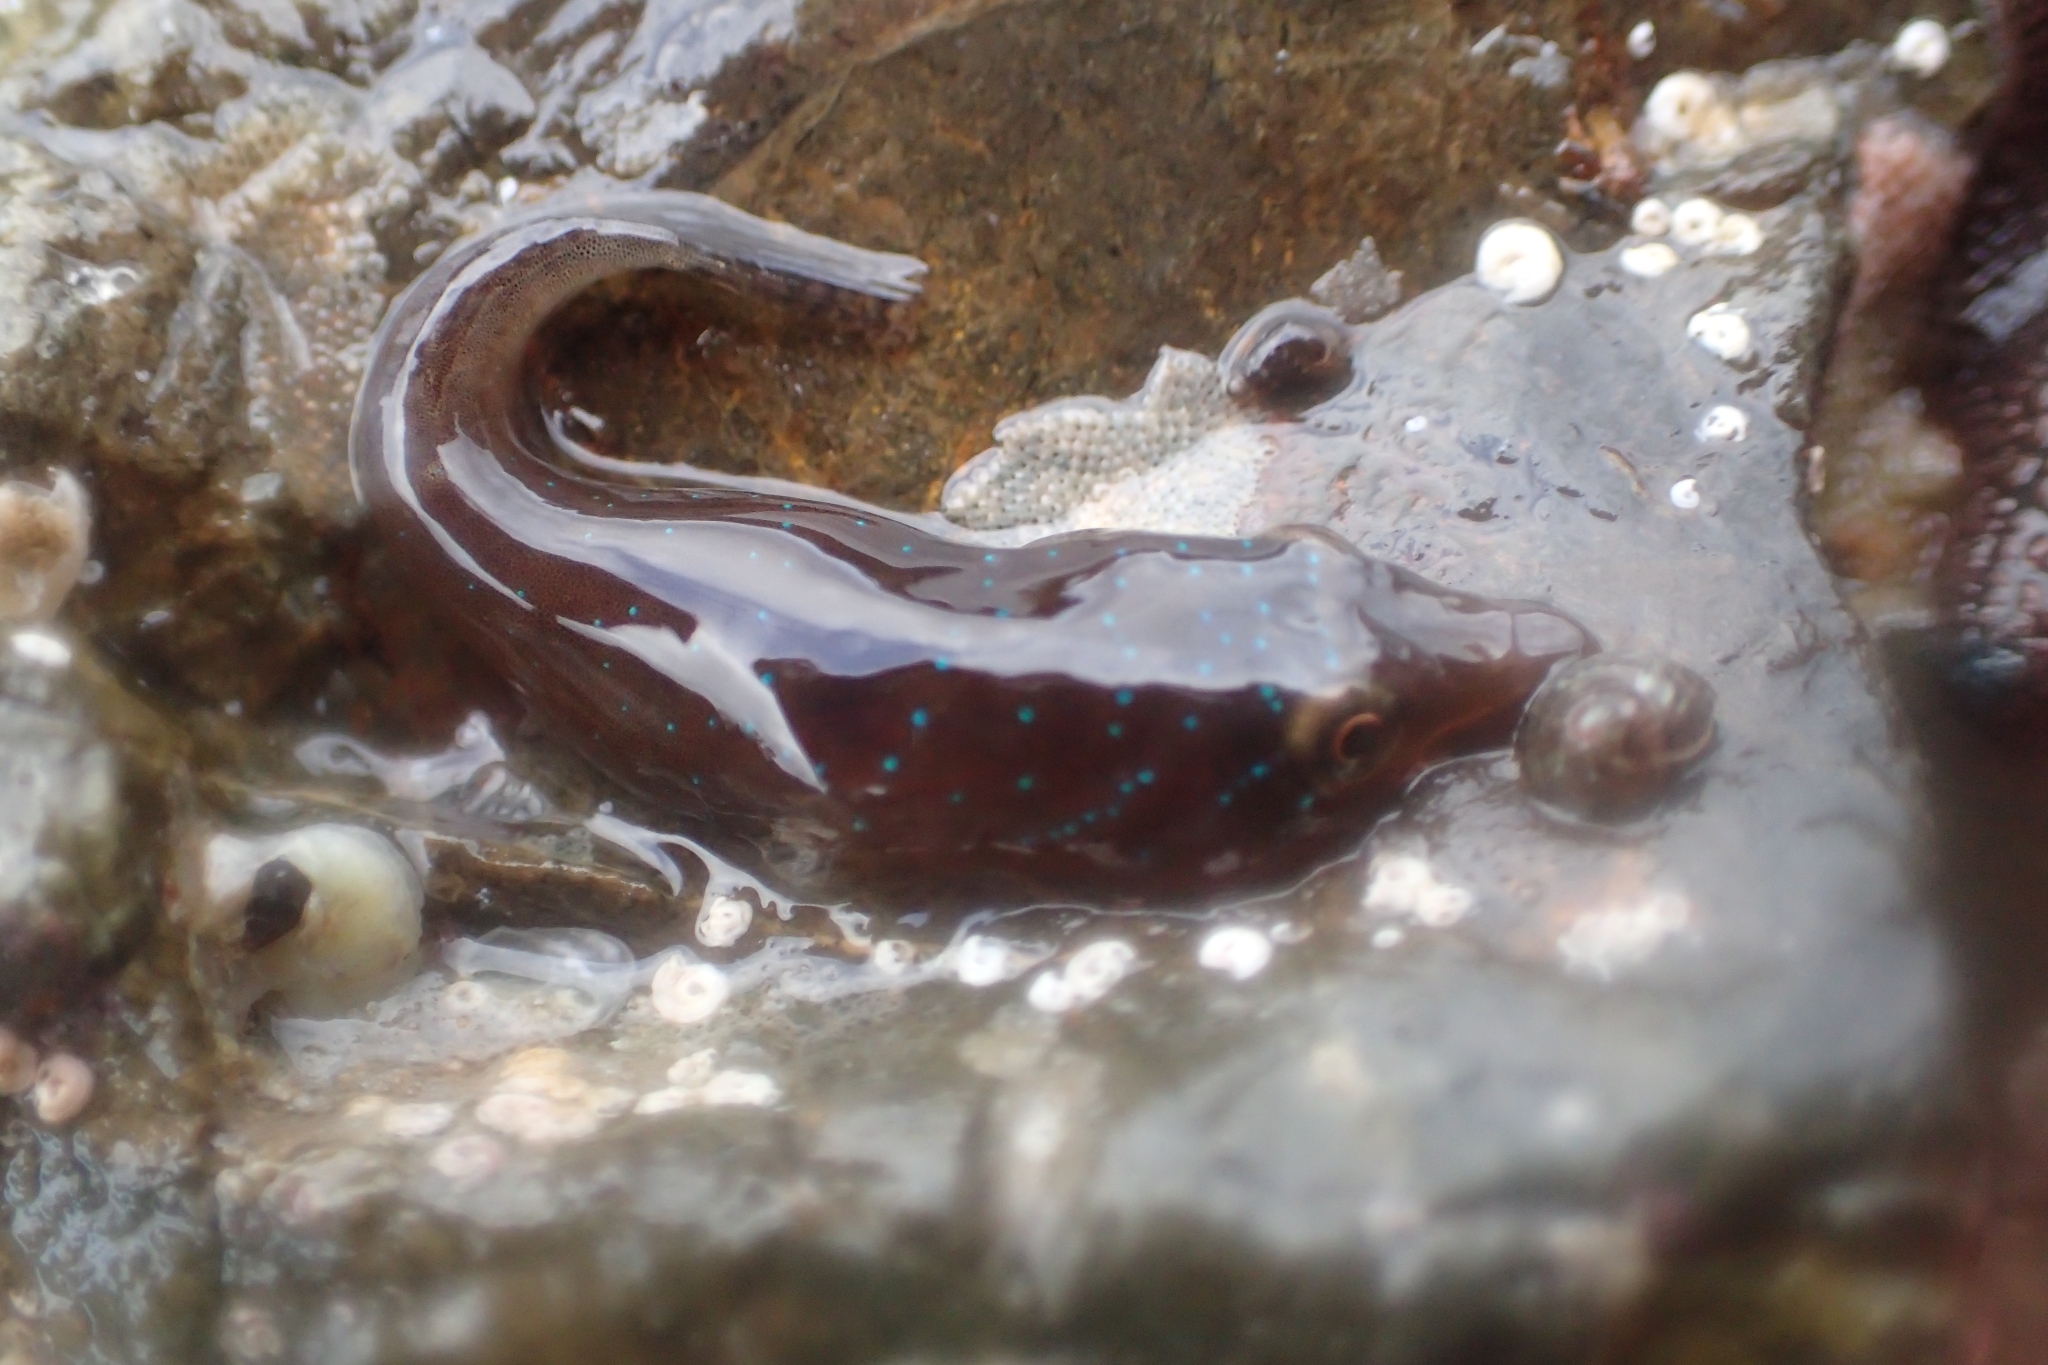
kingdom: Animalia
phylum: Chordata
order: Gobiesociformes
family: Gobiesocidae
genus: Dellichthys
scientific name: Dellichthys morelandi
